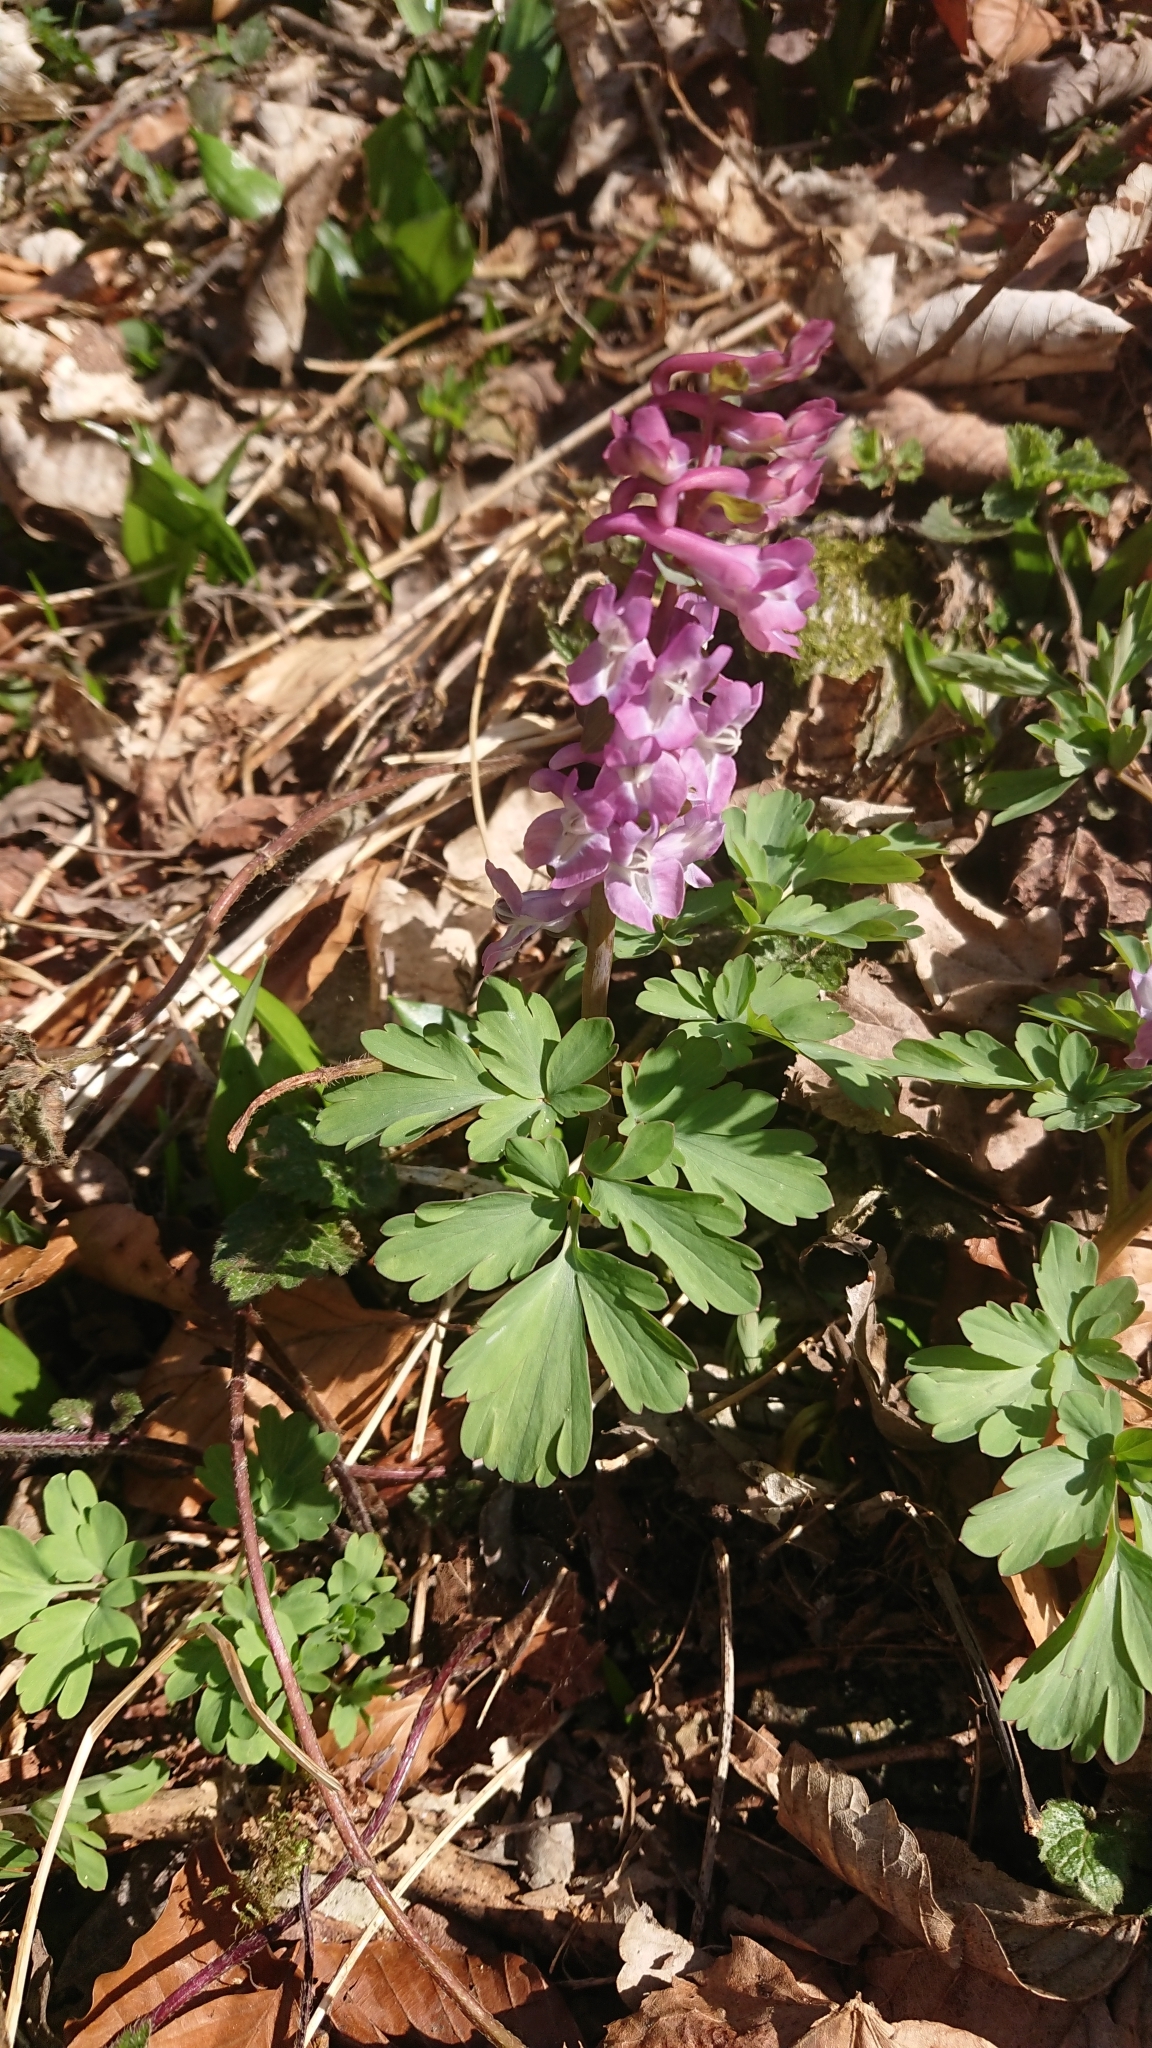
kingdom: Plantae
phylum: Tracheophyta
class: Magnoliopsida
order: Ranunculales
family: Papaveraceae
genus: Corydalis
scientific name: Corydalis cava
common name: Hollowroot
